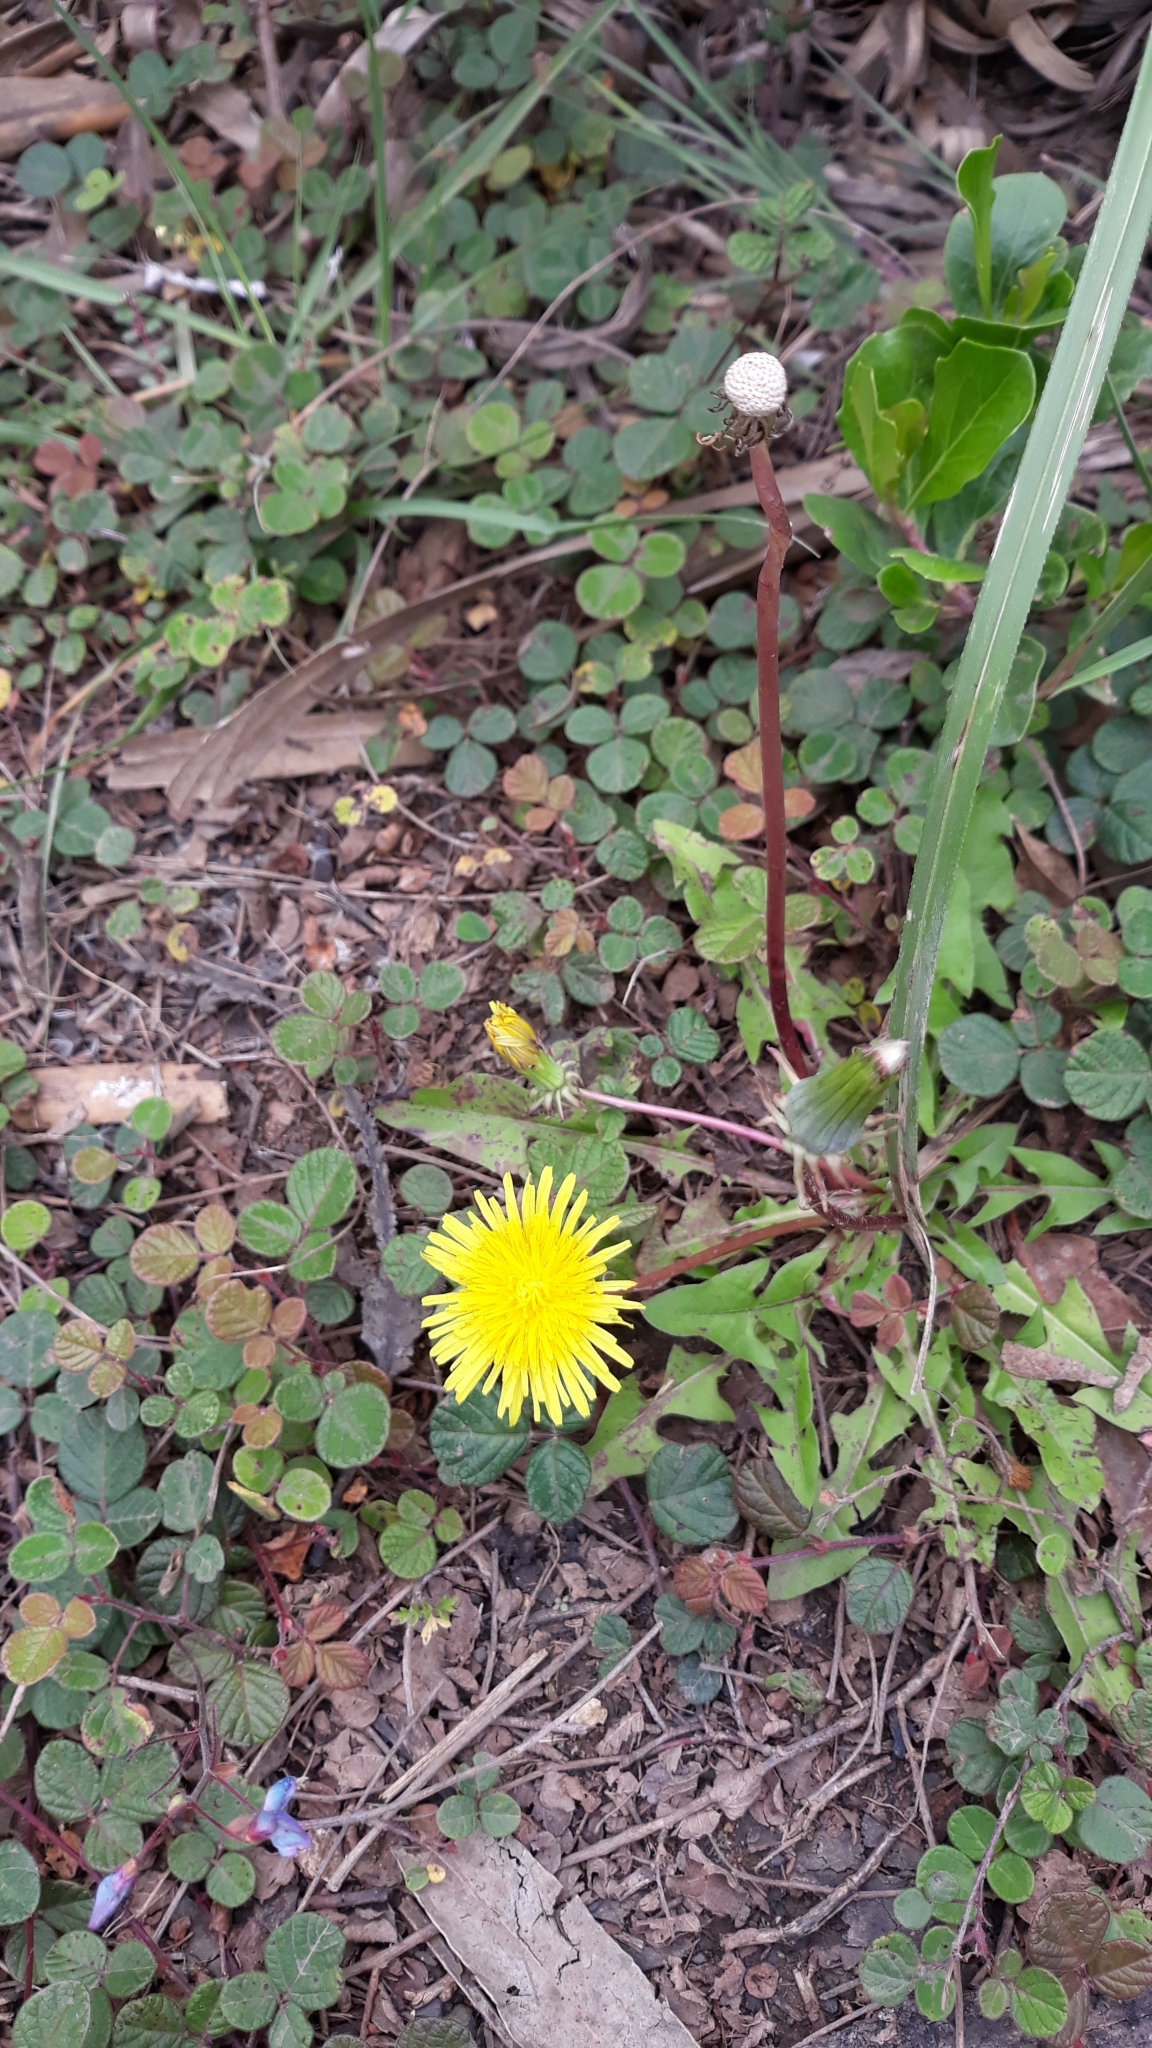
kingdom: Plantae
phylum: Tracheophyta
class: Magnoliopsida
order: Asterales
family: Asteraceae
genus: Taraxacum
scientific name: Taraxacum officinale
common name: Common dandelion
